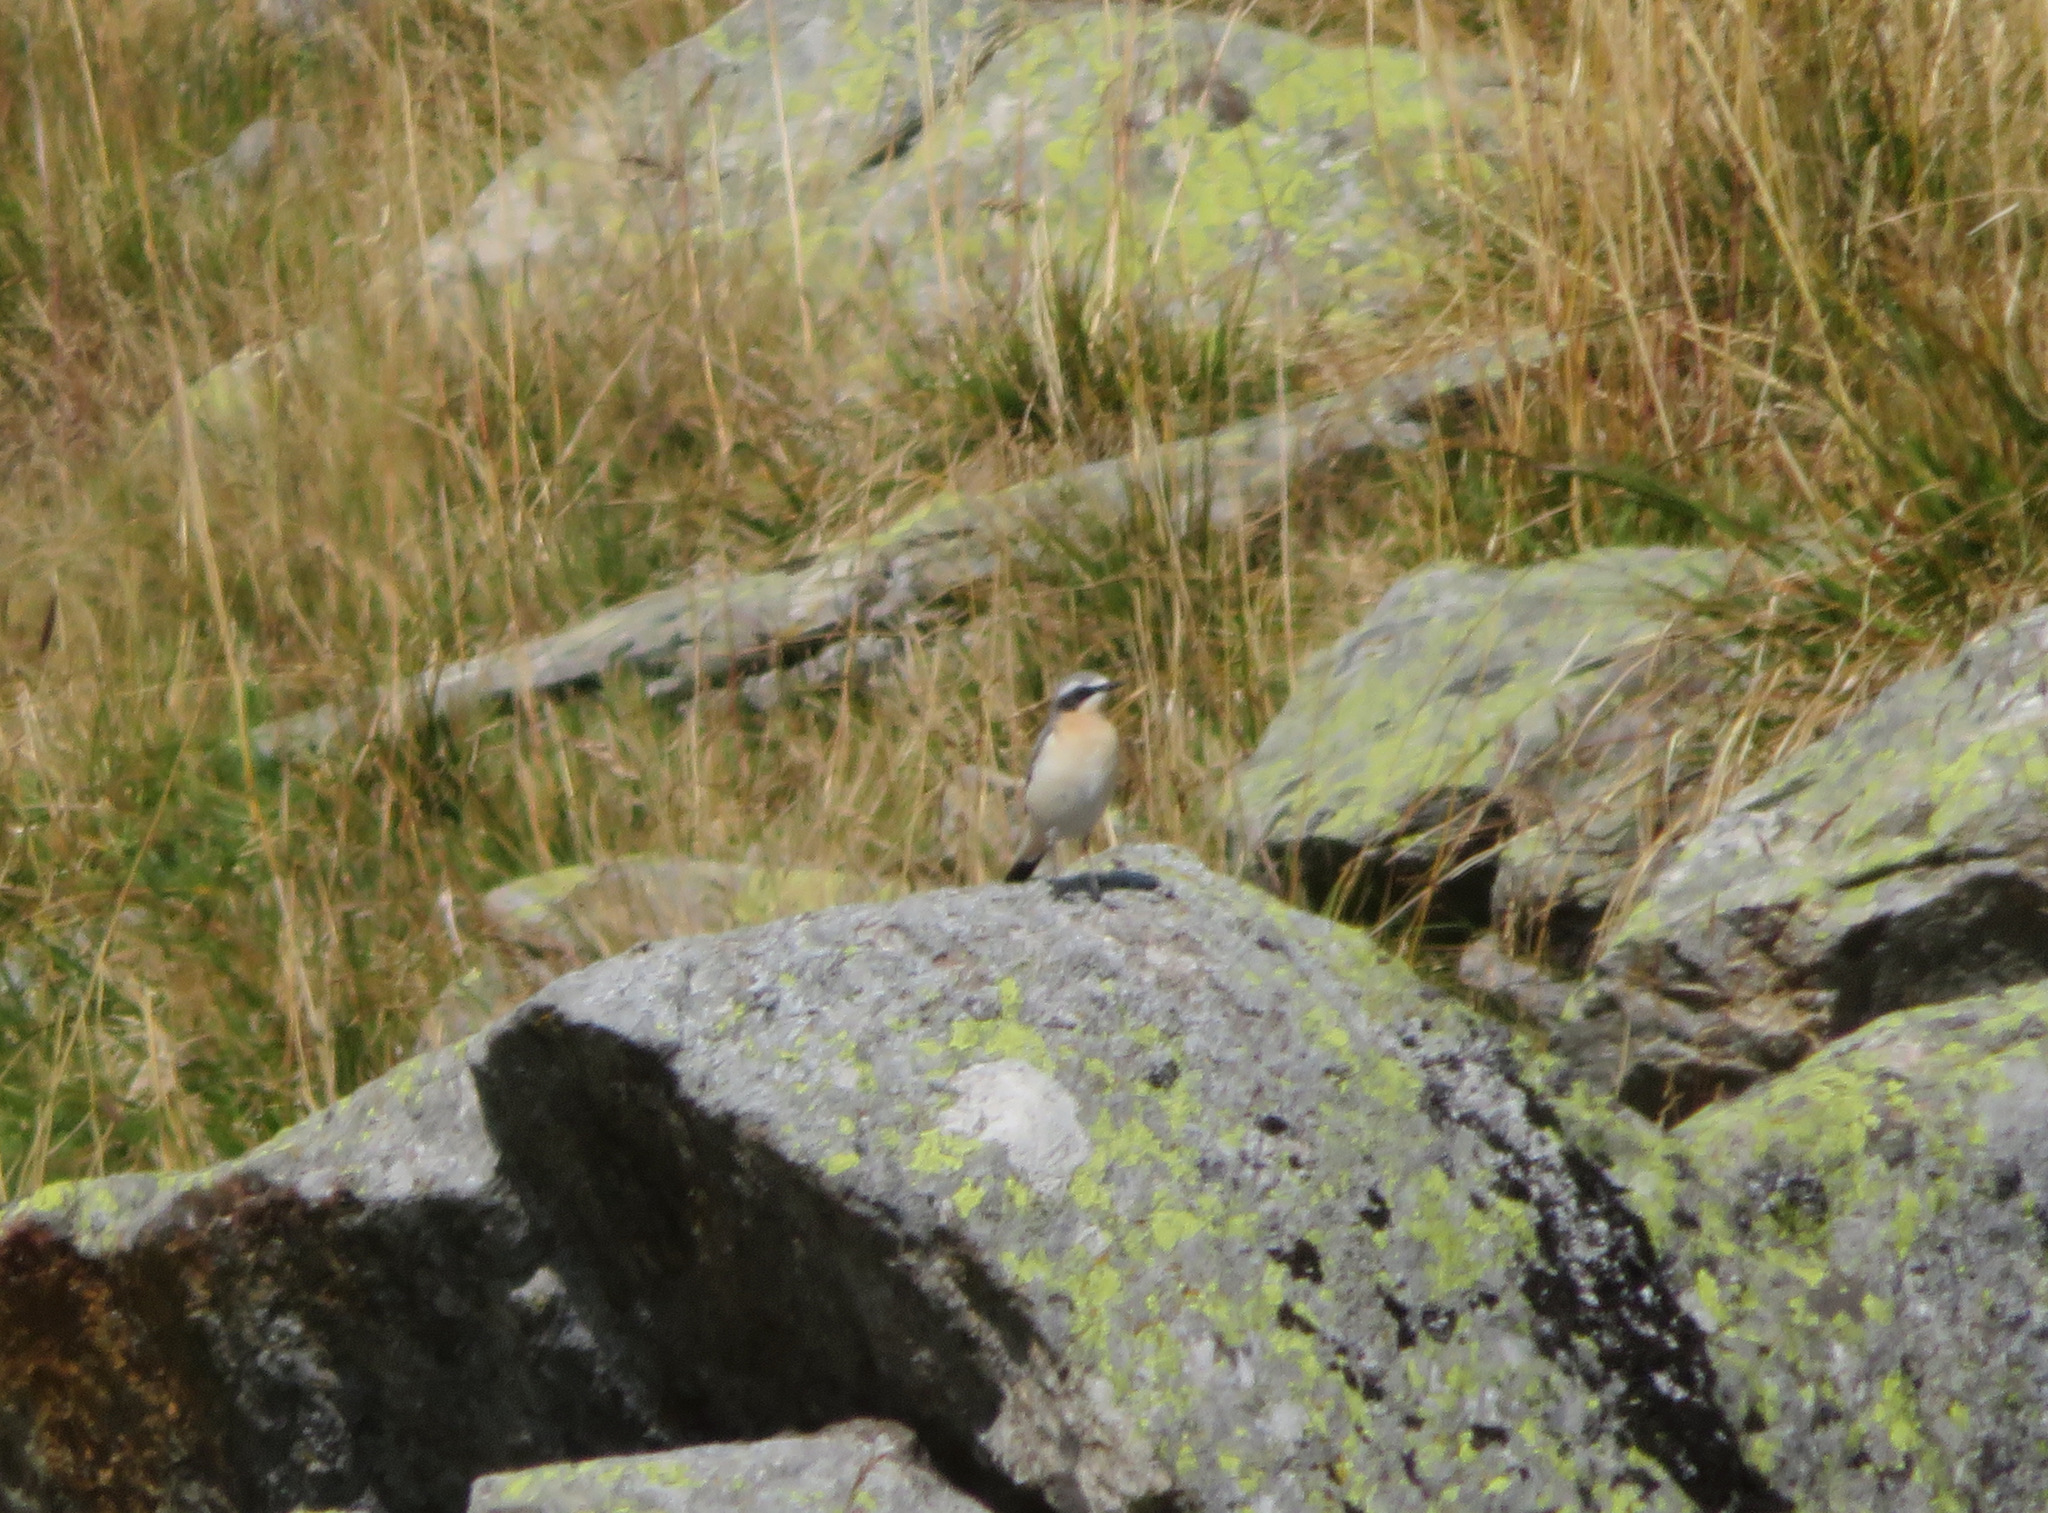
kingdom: Animalia
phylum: Chordata
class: Aves
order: Passeriformes
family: Muscicapidae
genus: Oenanthe
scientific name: Oenanthe oenanthe
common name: Northern wheatear
